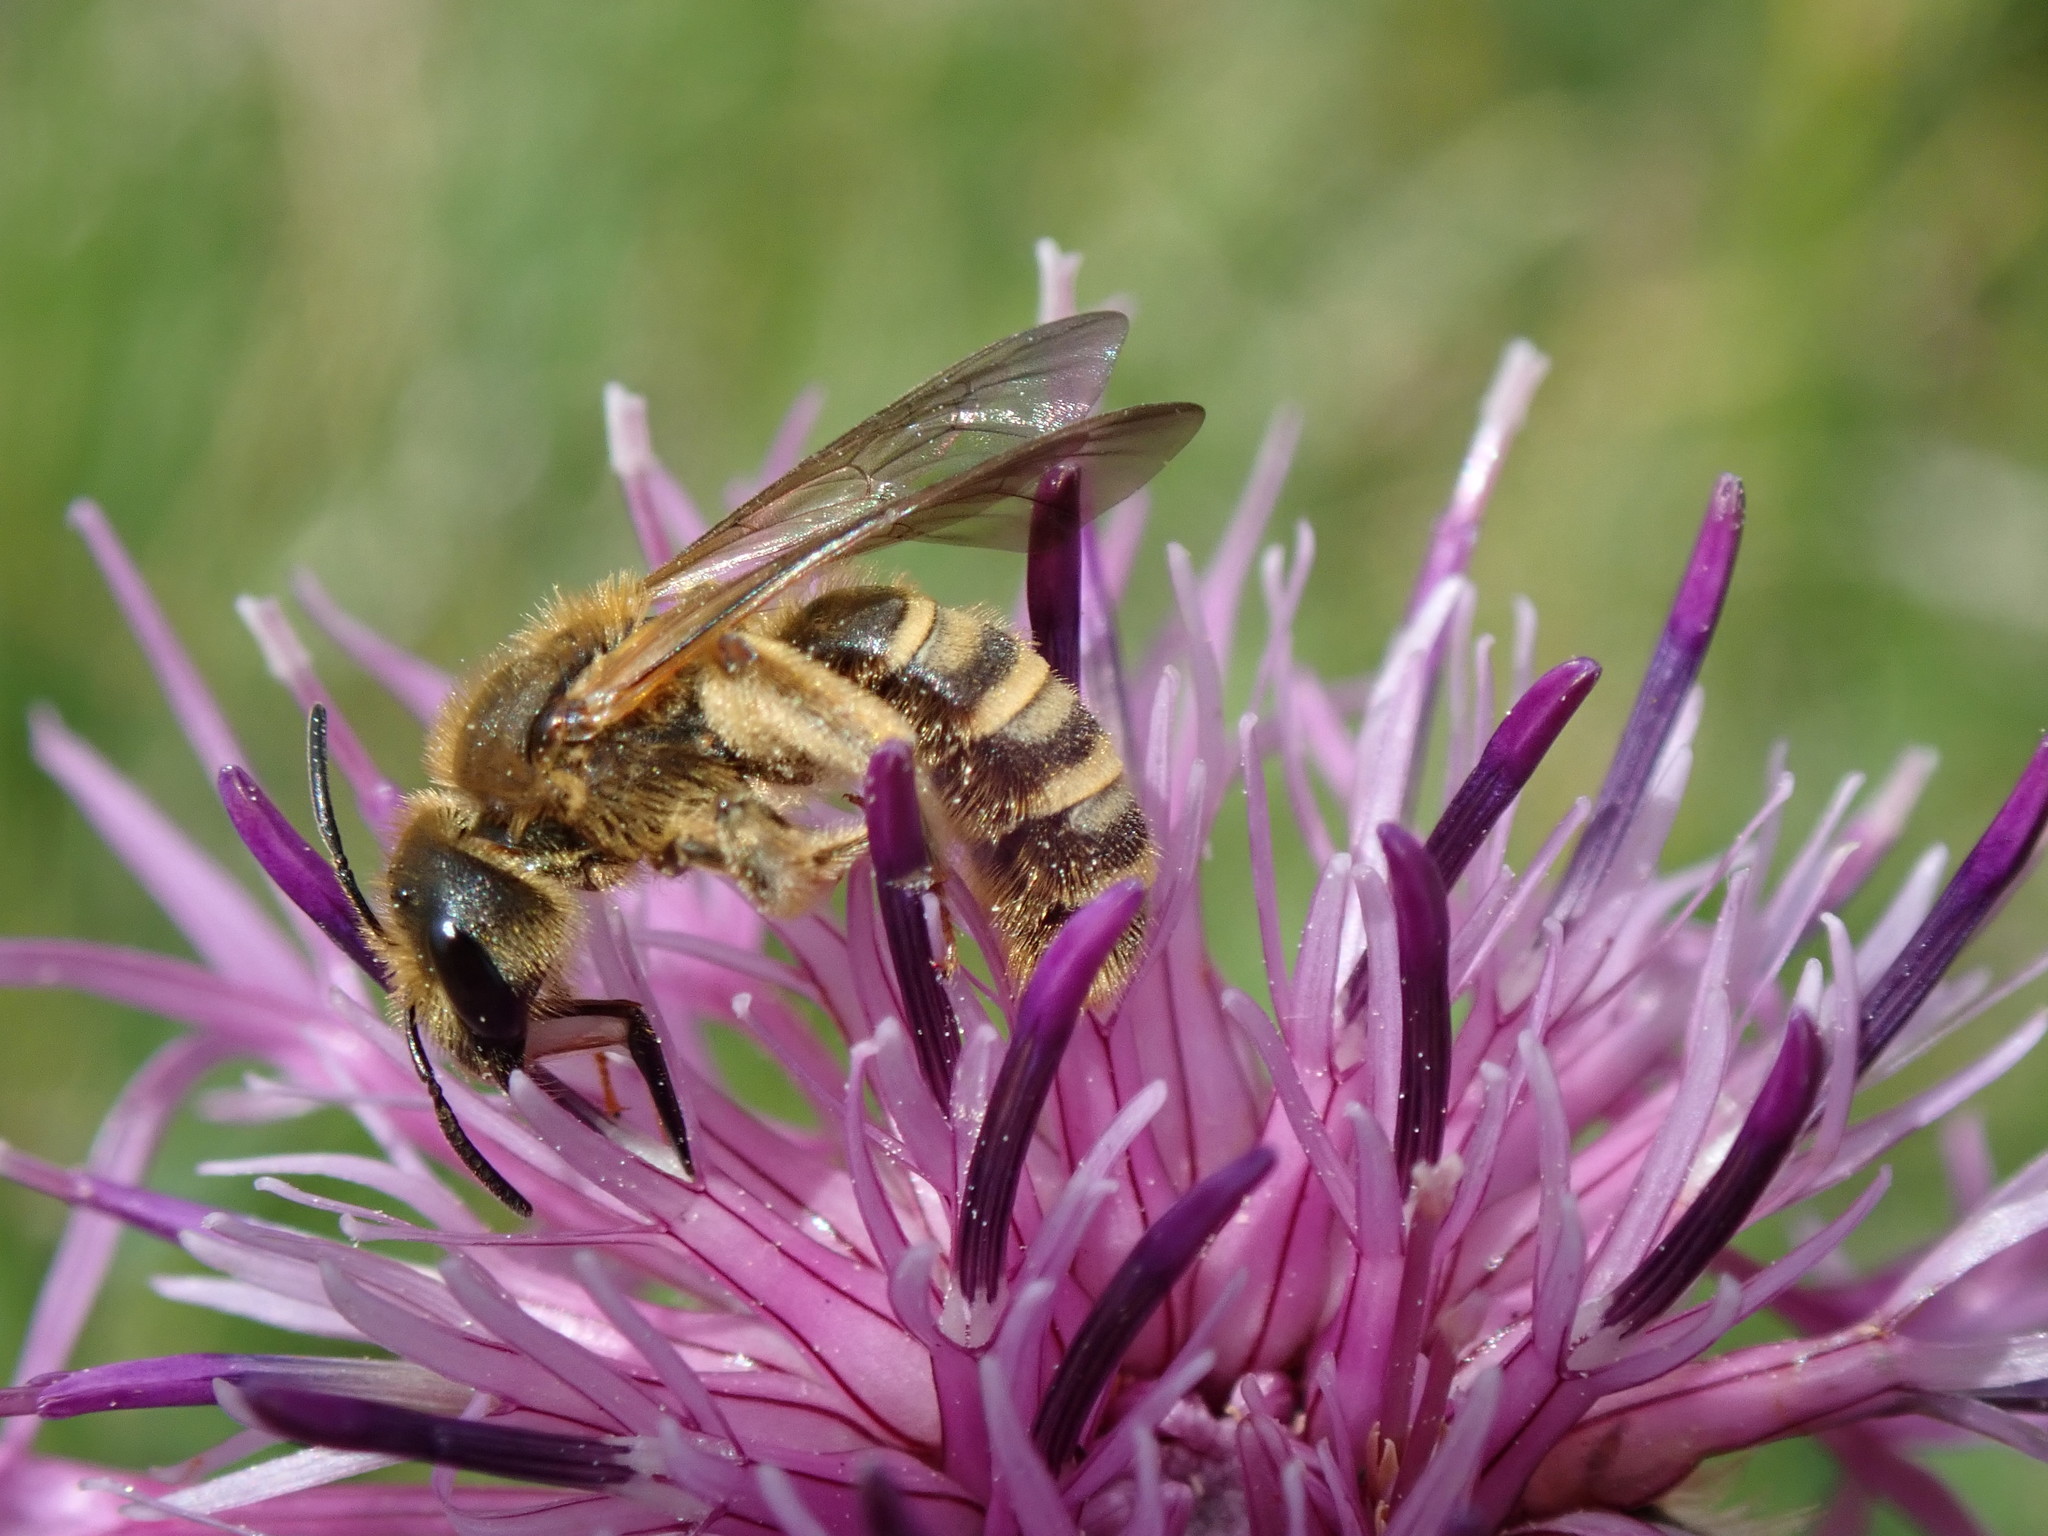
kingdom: Animalia
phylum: Arthropoda
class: Insecta
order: Hymenoptera
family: Halictidae
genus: Halictus
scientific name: Halictus scabiosae
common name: Great banded furrow bee
